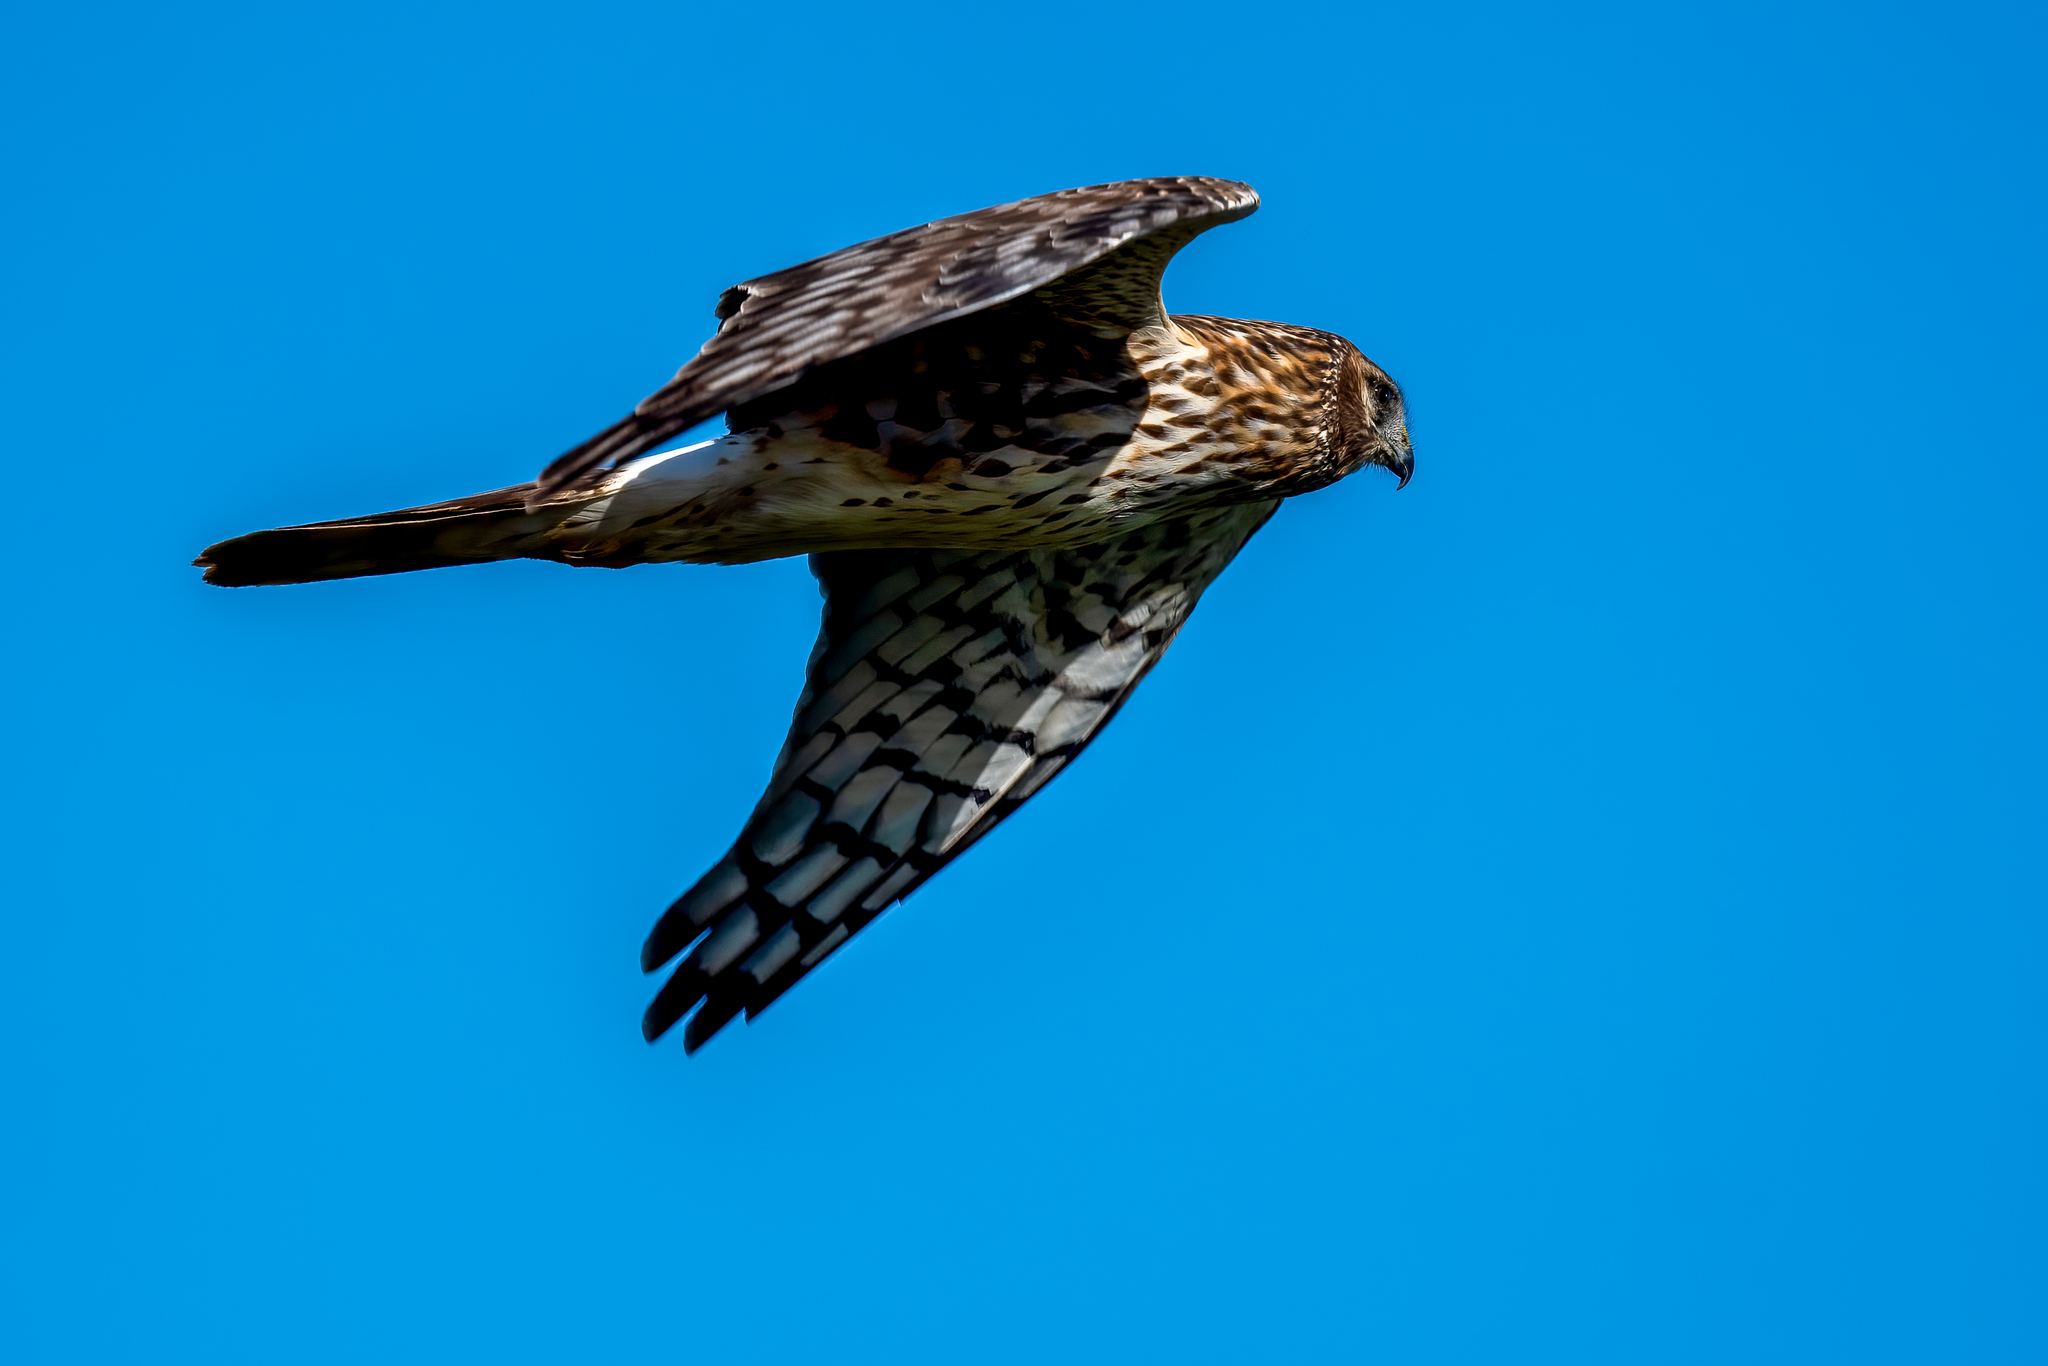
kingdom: Animalia
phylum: Chordata
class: Aves
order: Accipitriformes
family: Accipitridae
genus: Circus
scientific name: Circus cyaneus
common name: Hen harrier
